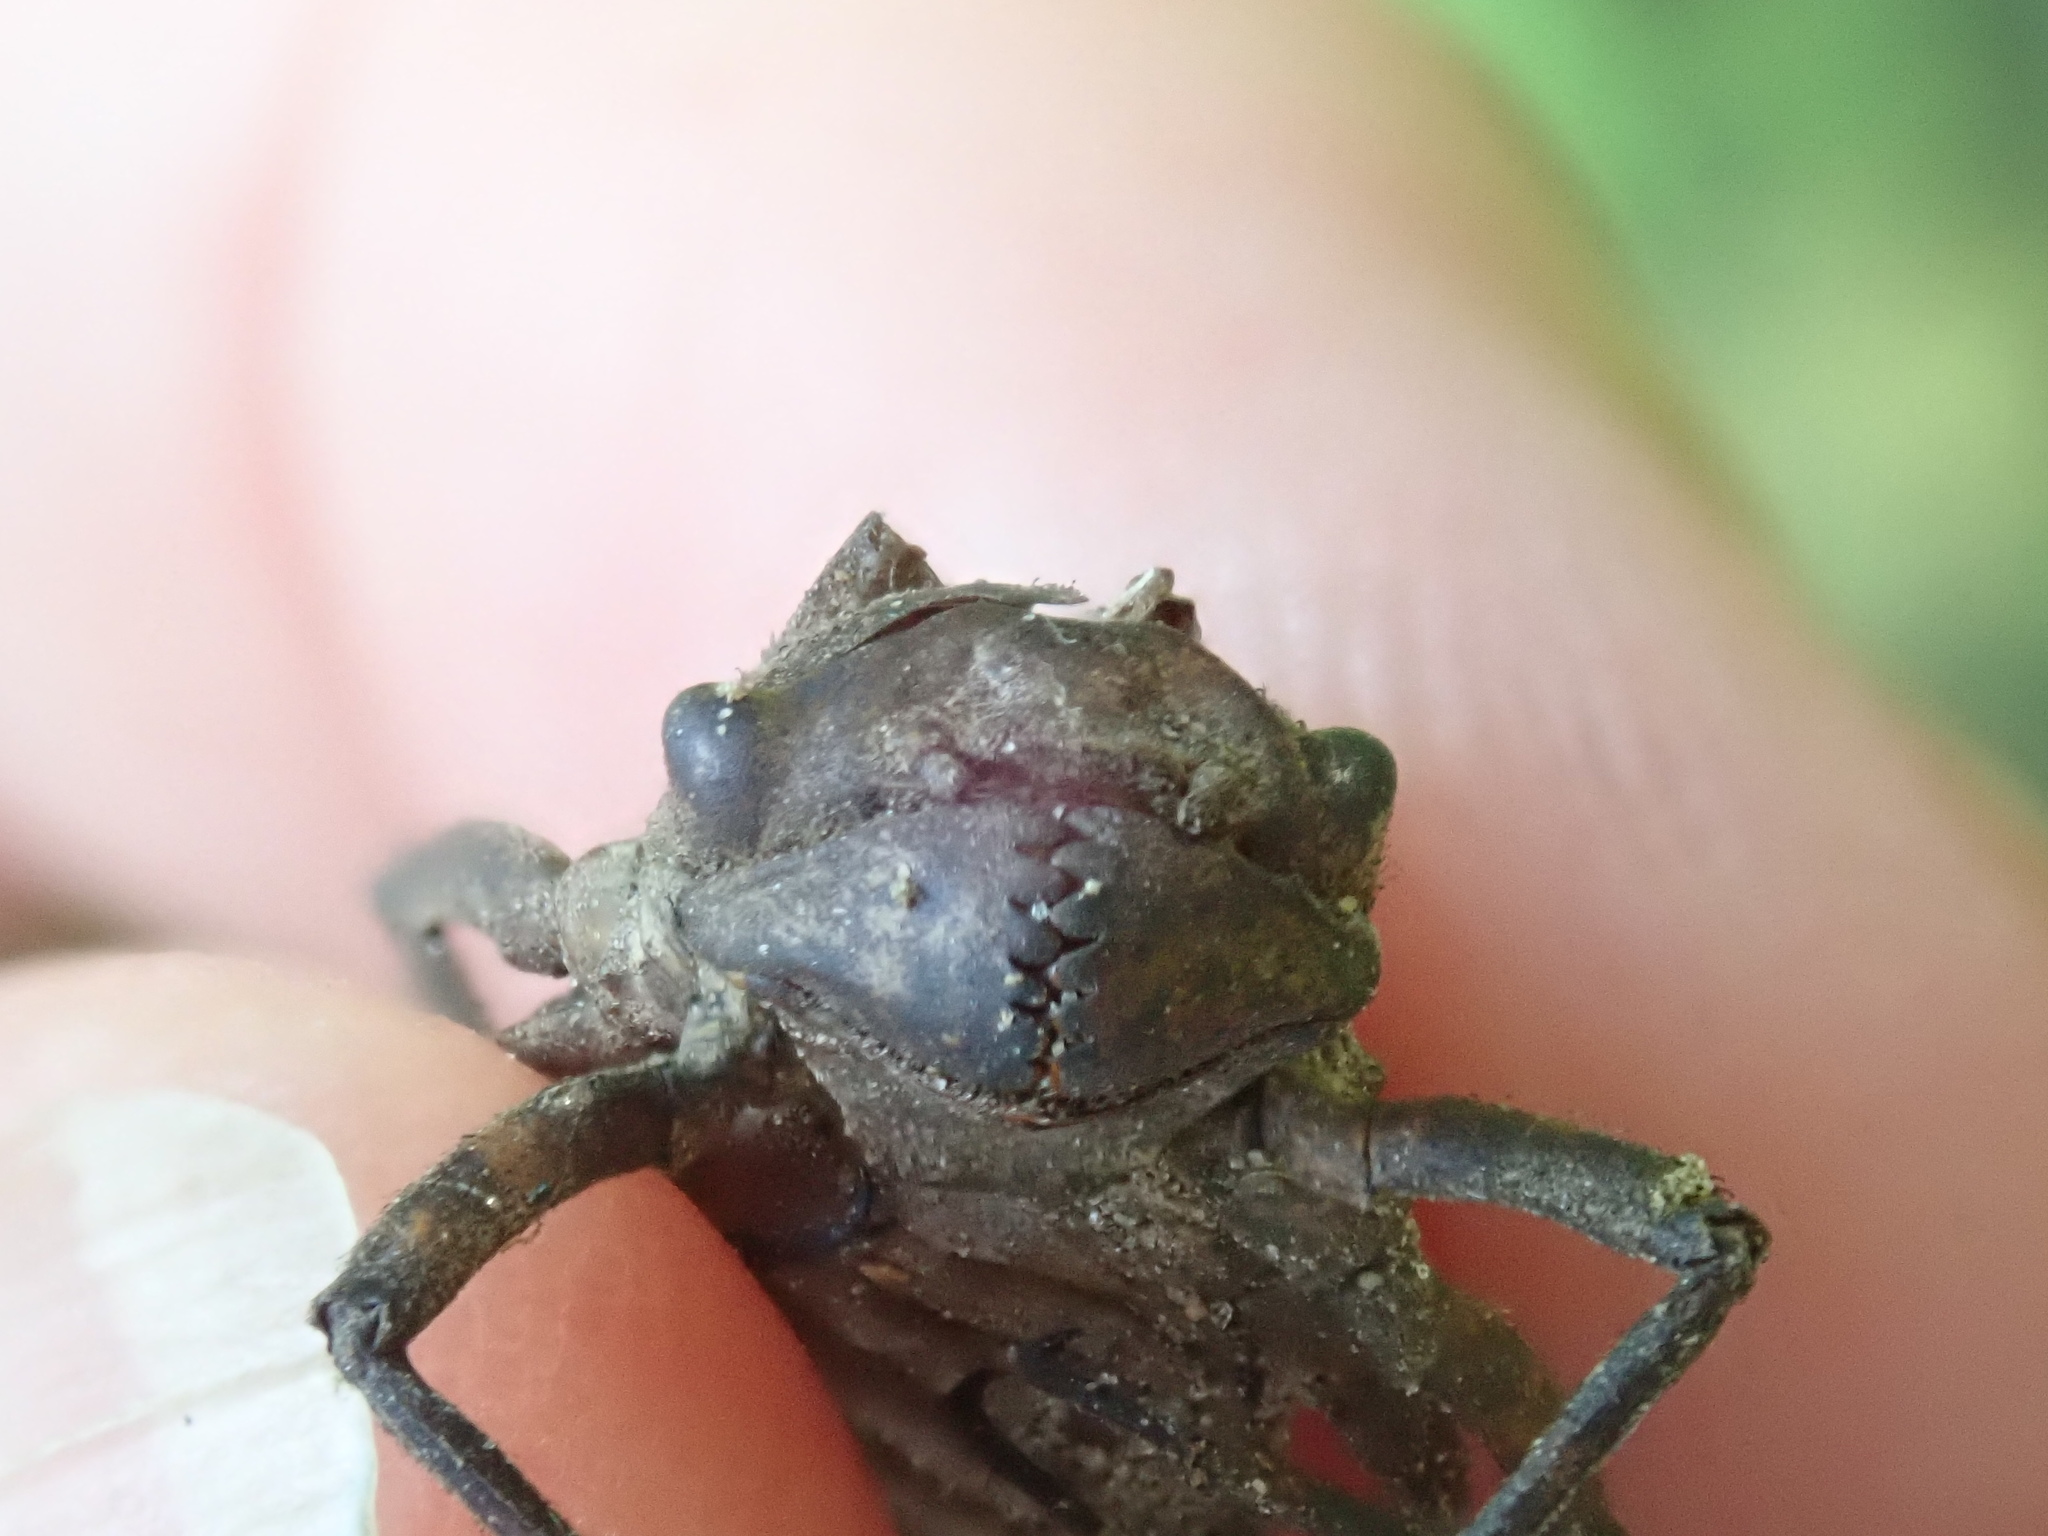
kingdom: Animalia
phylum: Arthropoda
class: Insecta
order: Odonata
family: Corduliidae
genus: Neurocordulia
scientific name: Neurocordulia yamaskanensis
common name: Stygian shadowdragon
